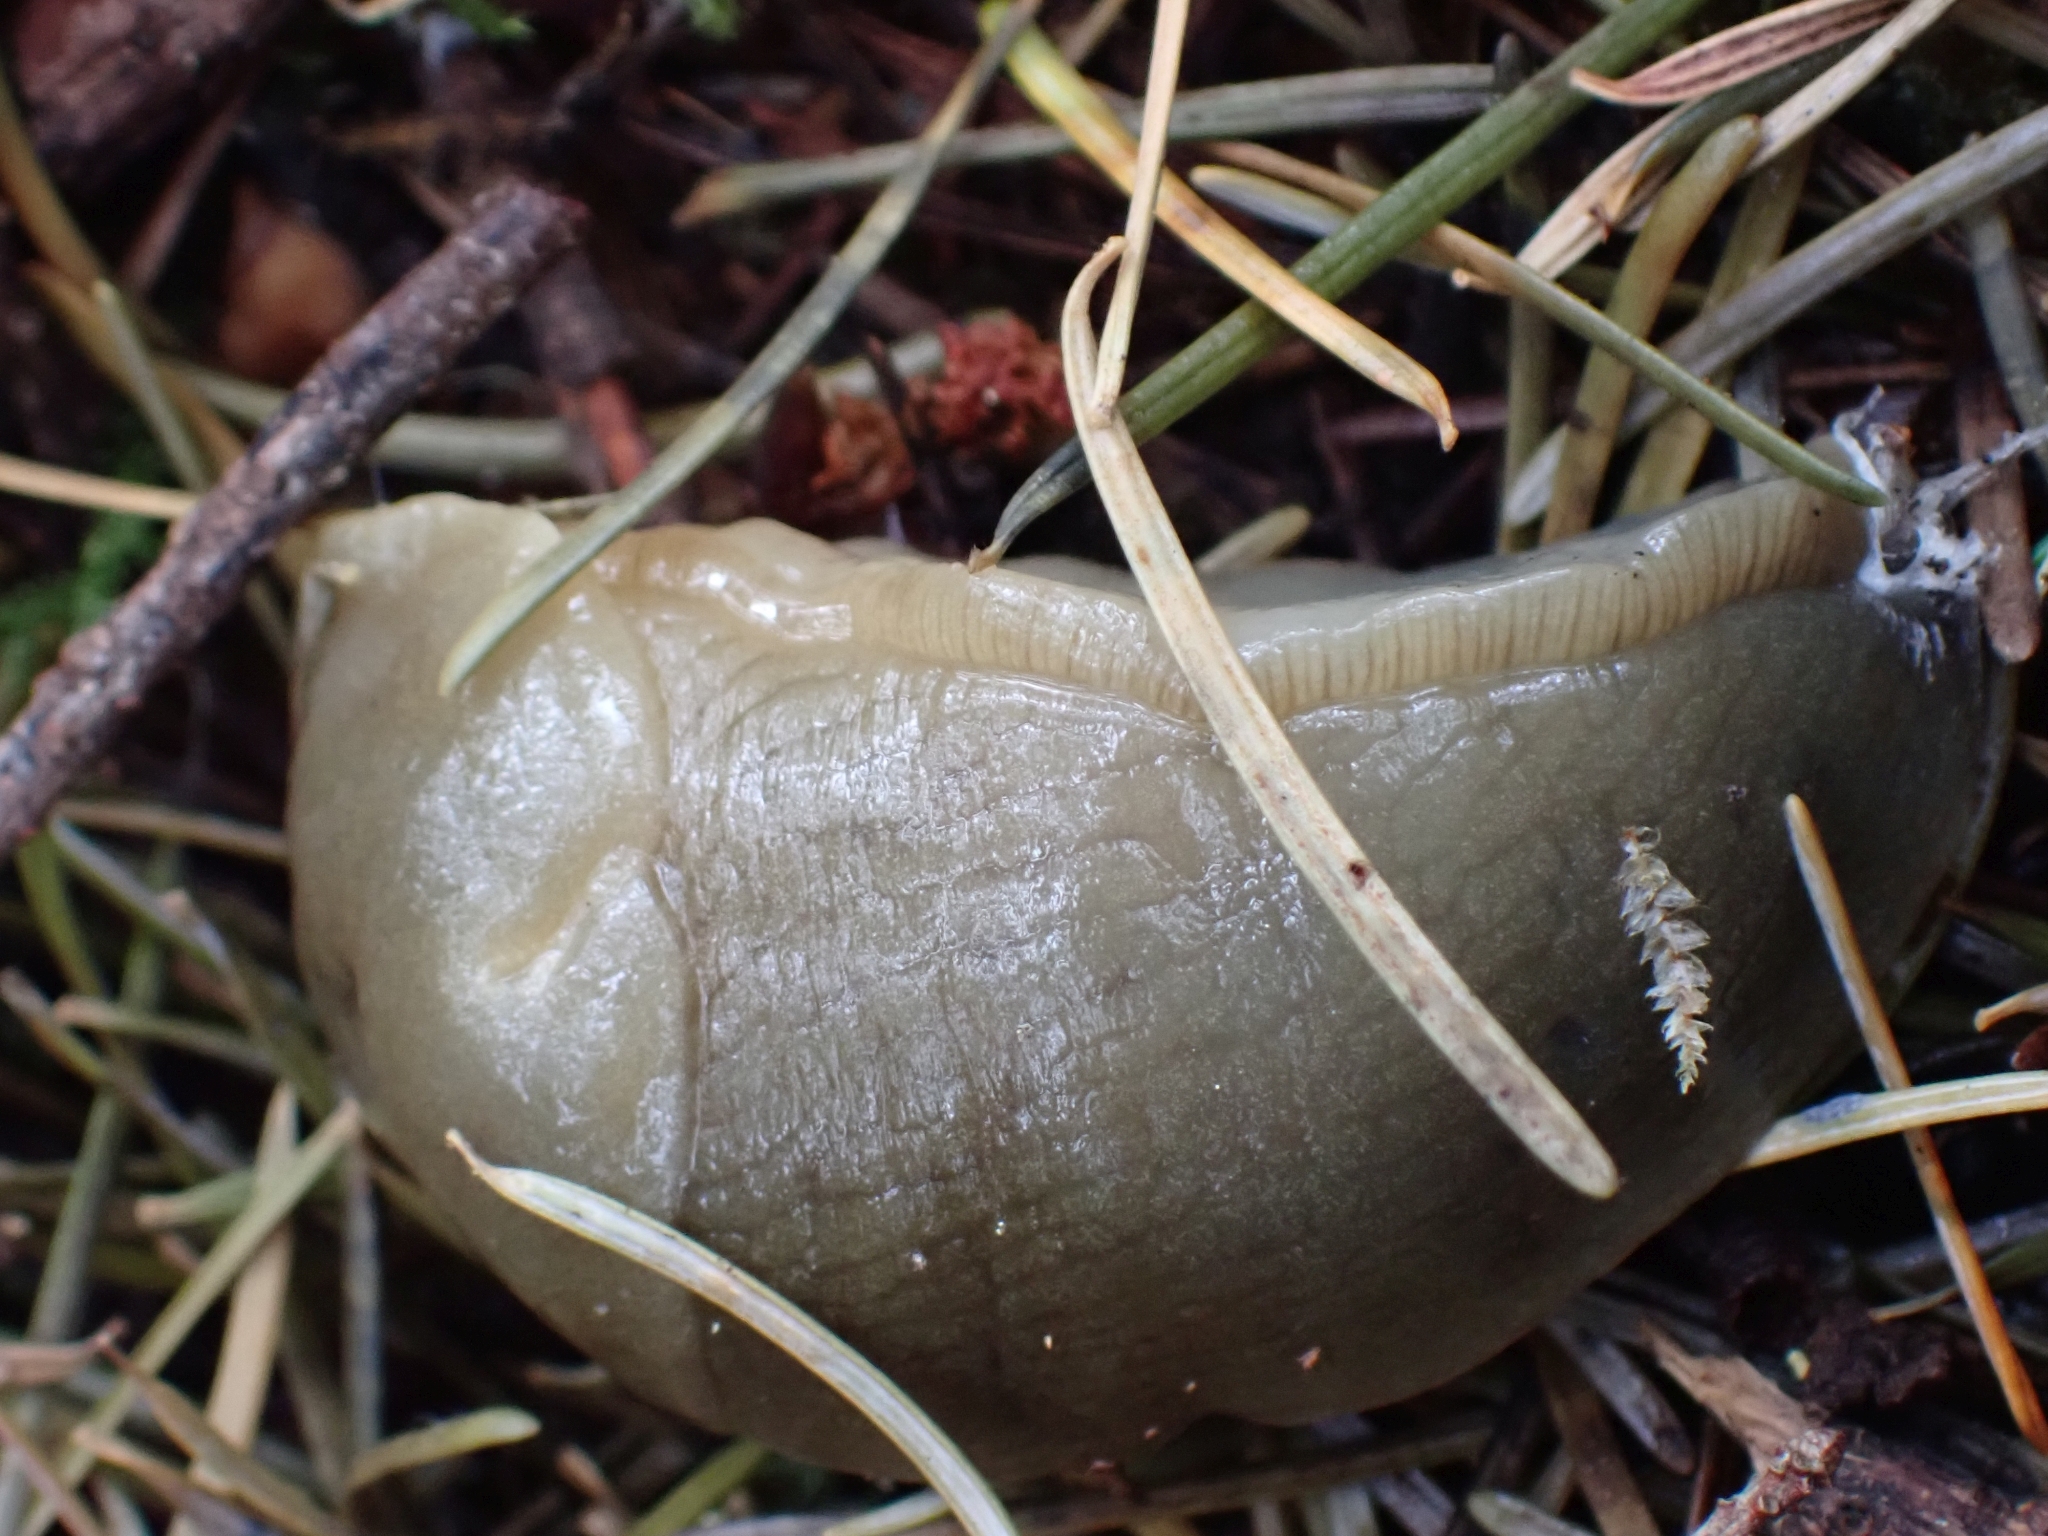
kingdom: Animalia
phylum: Mollusca
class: Gastropoda
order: Stylommatophora
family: Ariolimacidae
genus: Ariolimax
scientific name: Ariolimax columbianus
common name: Pacific banana slug
